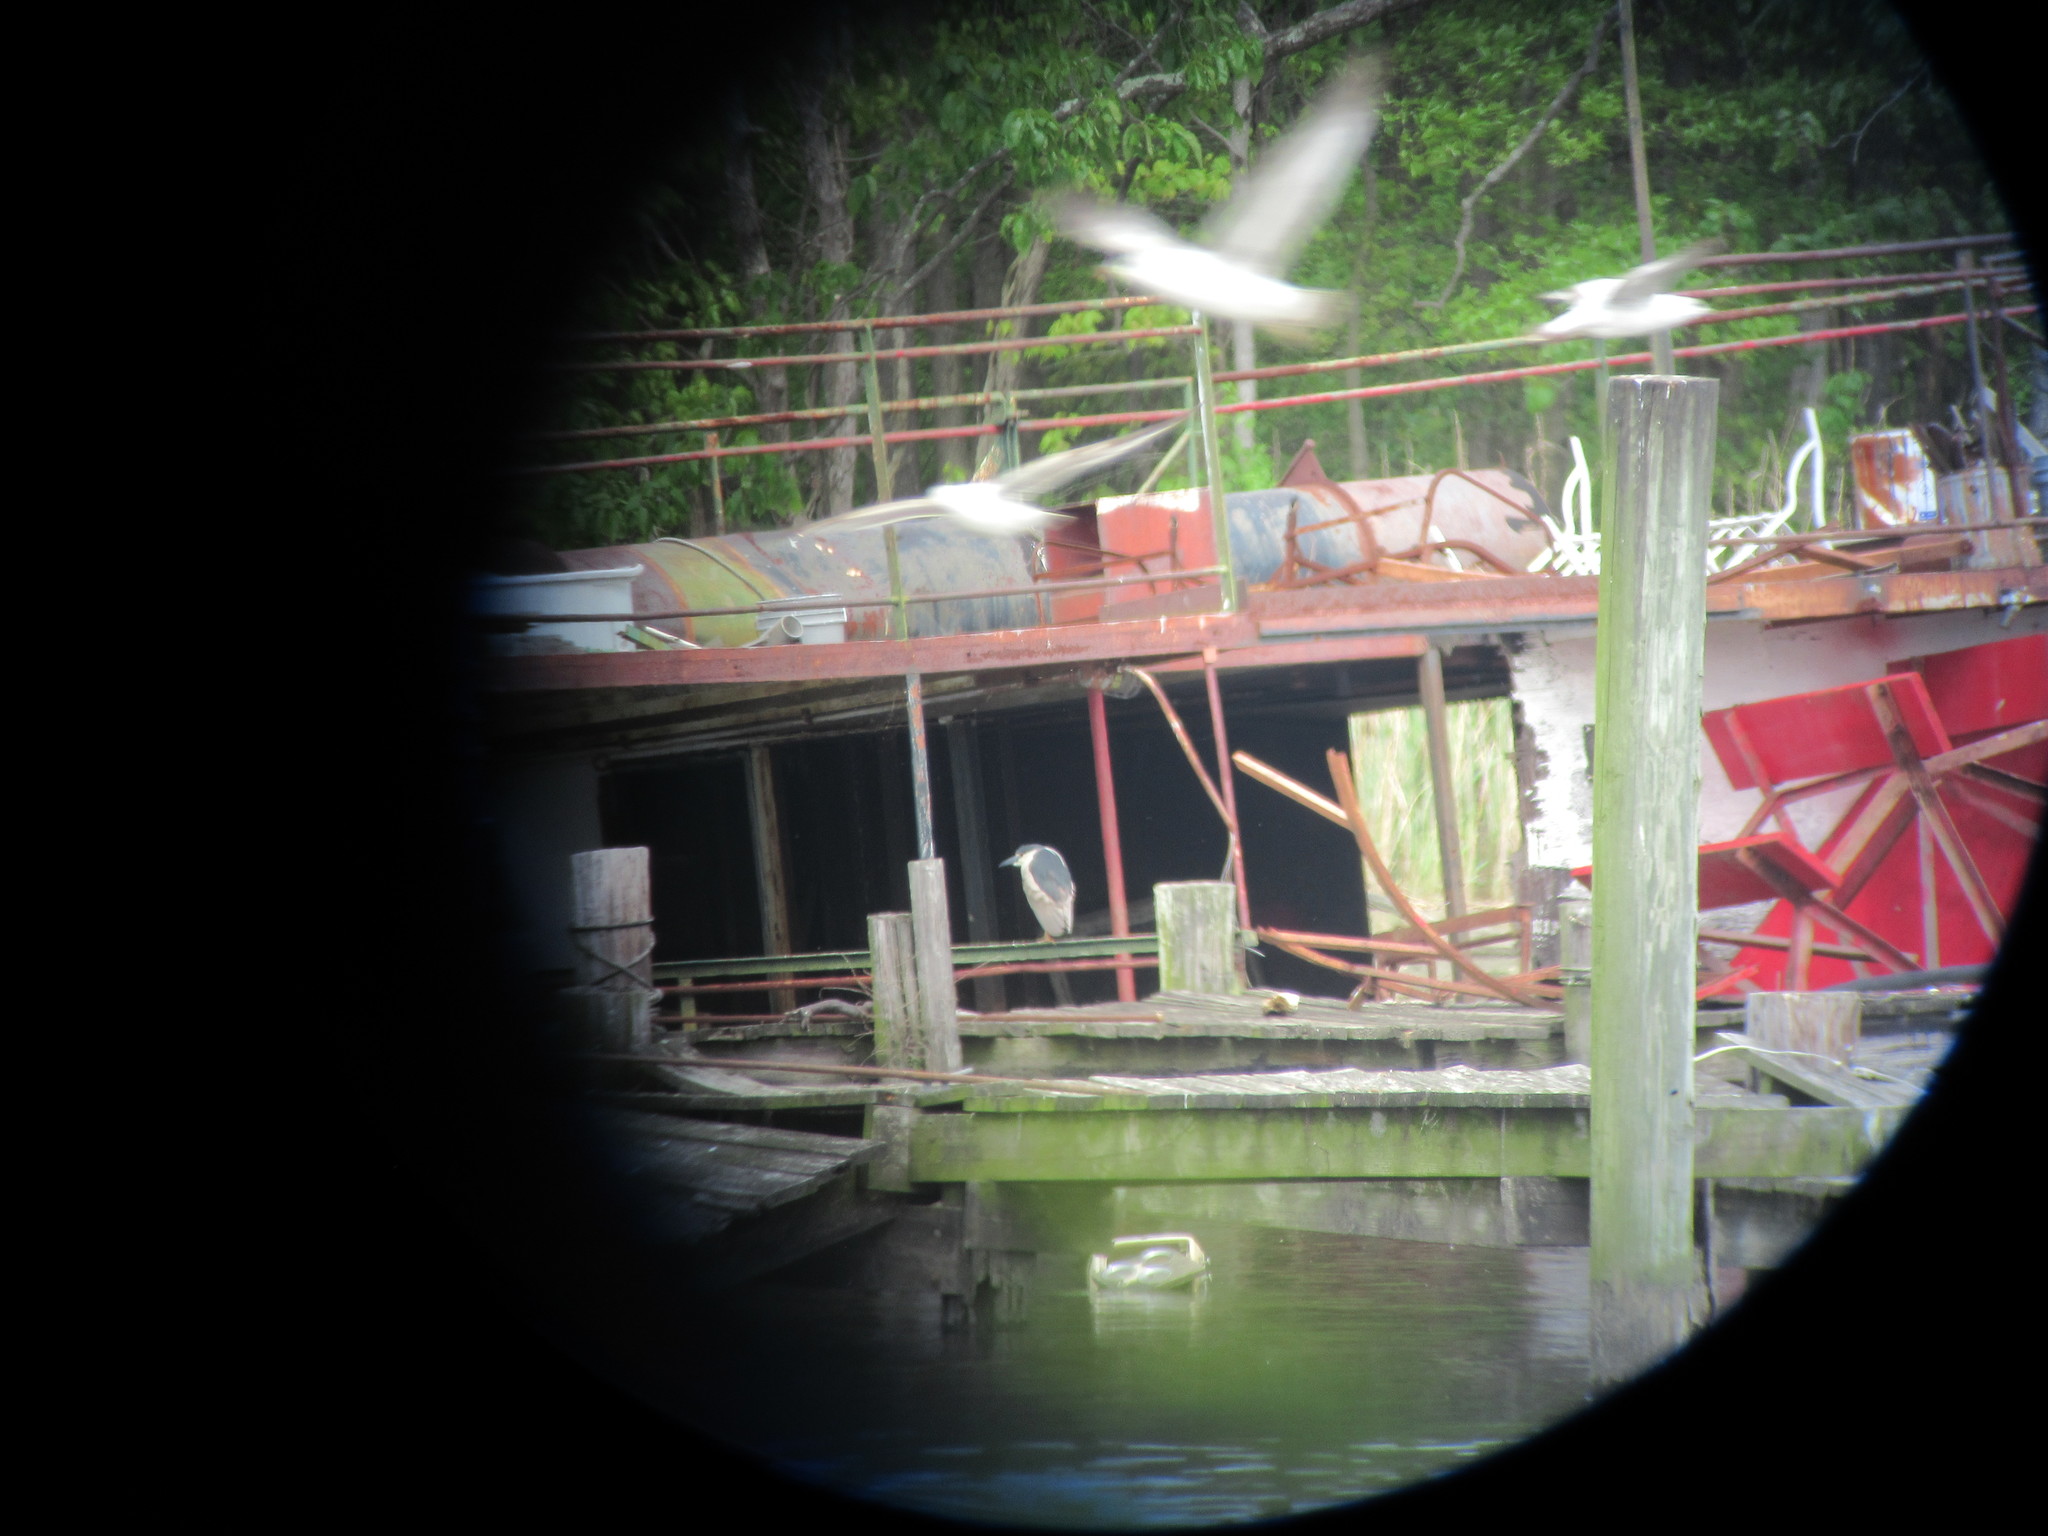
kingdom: Animalia
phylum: Chordata
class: Aves
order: Pelecaniformes
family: Ardeidae
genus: Nycticorax
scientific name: Nycticorax nycticorax
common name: Black-crowned night heron
